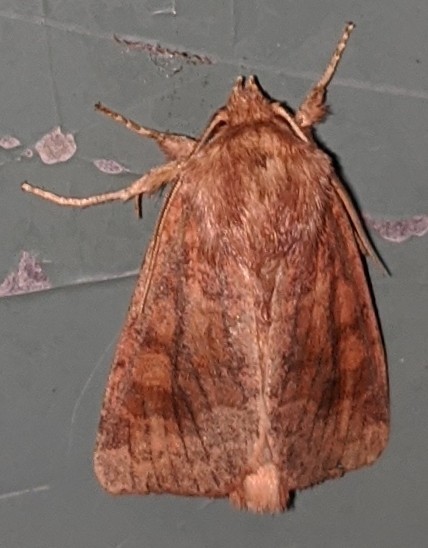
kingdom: Animalia
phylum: Arthropoda
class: Insecta
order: Lepidoptera
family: Noctuidae
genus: Nephelodes
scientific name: Nephelodes minians
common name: Bronzed cutworm
